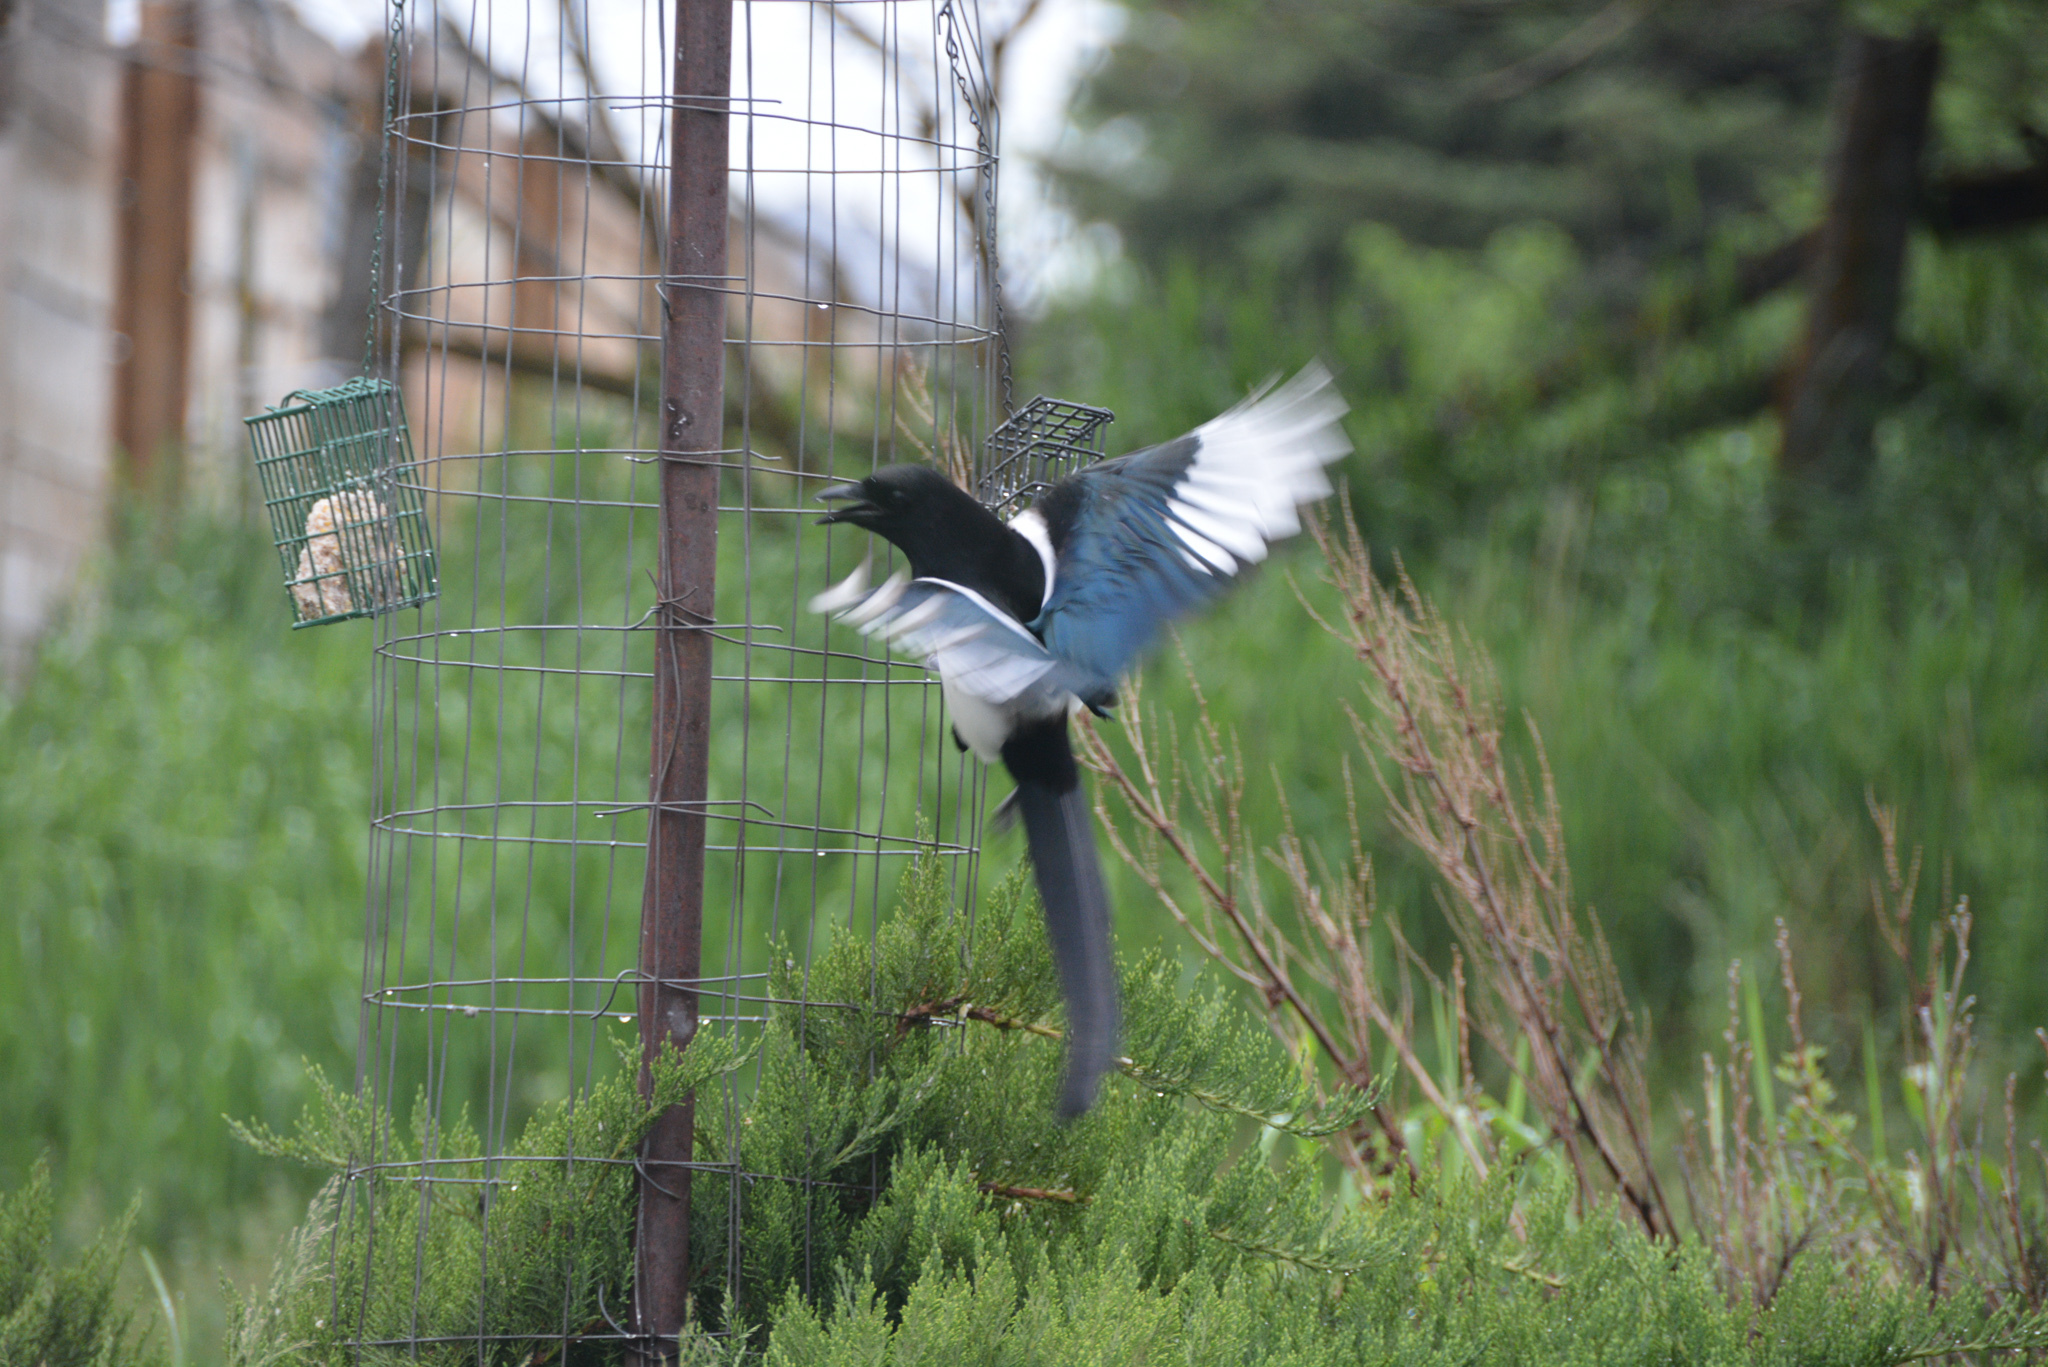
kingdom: Animalia
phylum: Chordata
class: Aves
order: Passeriformes
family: Corvidae
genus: Pica
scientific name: Pica hudsonia
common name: Black-billed magpie
